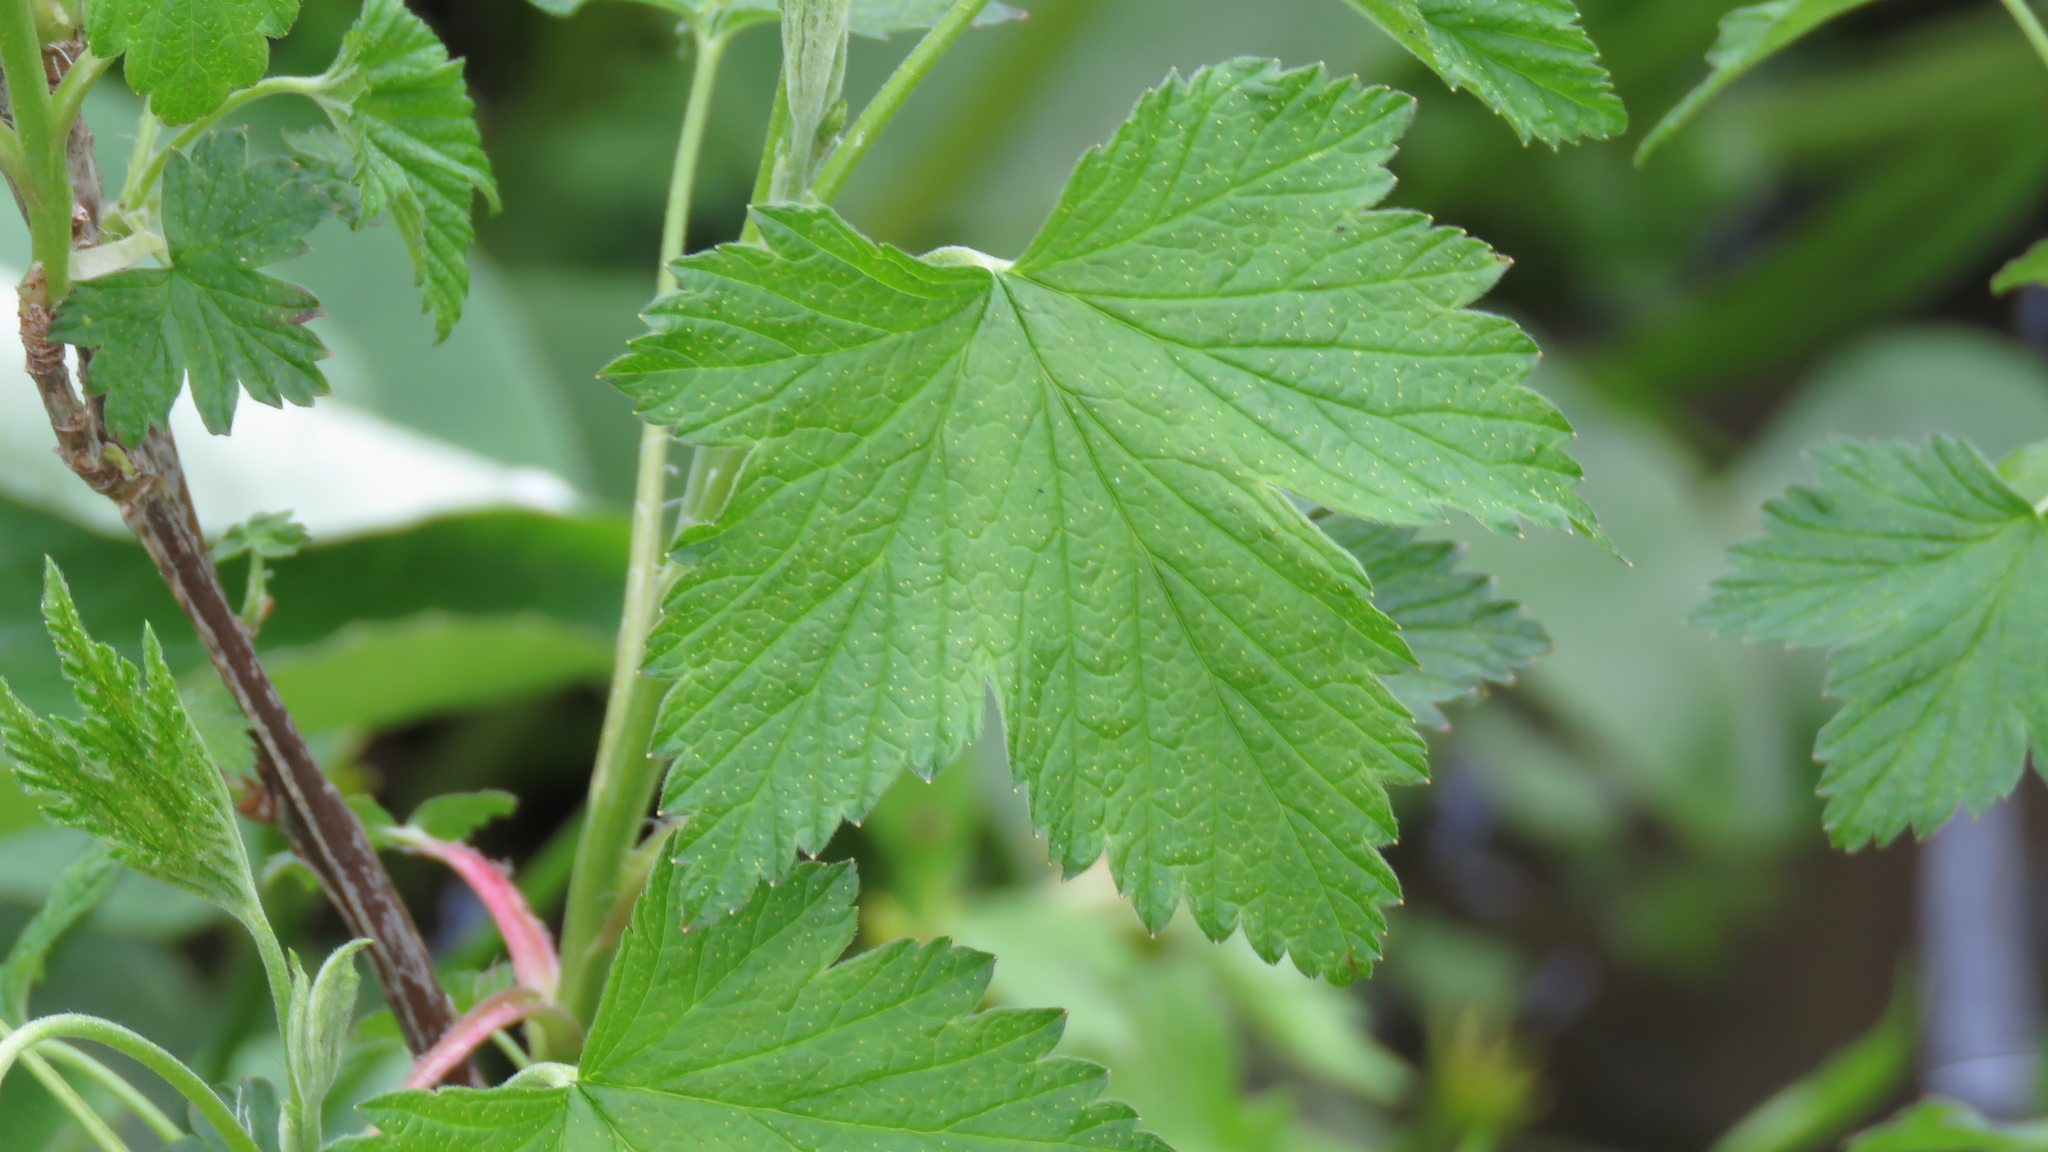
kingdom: Plantae
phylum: Tracheophyta
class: Magnoliopsida
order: Saxifragales
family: Grossulariaceae
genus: Ribes
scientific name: Ribes americanum
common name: American black currant
